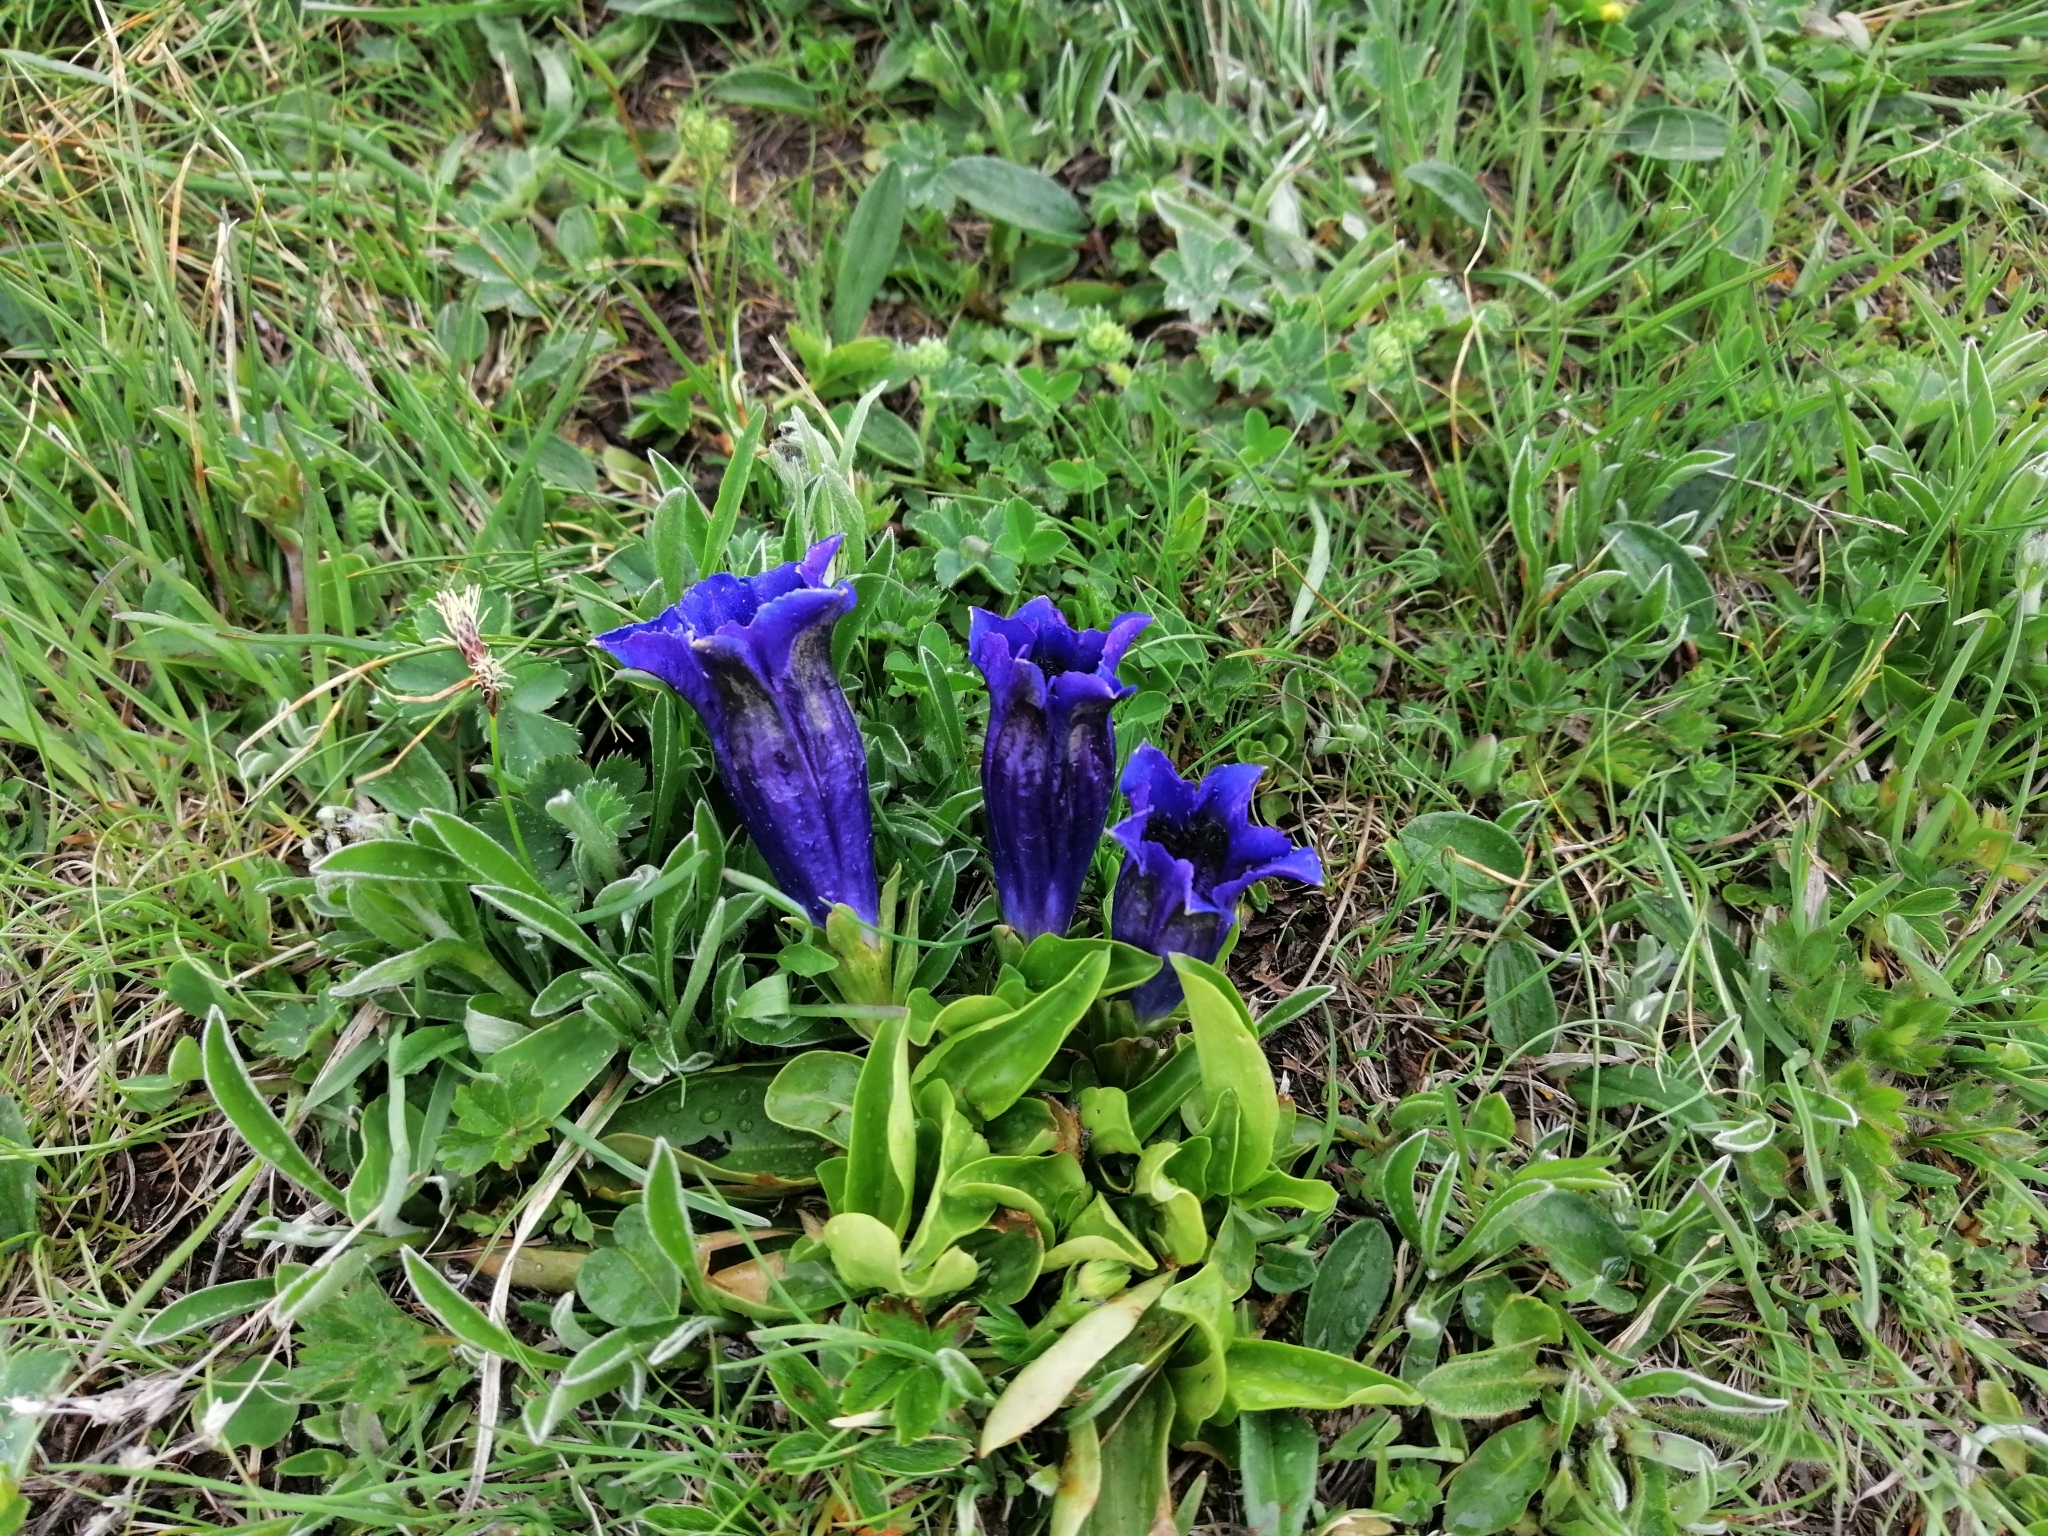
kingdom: Plantae
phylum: Tracheophyta
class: Magnoliopsida
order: Gentianales
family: Gentianaceae
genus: Gentiana
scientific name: Gentiana acaulis
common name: Trumpet gentian
